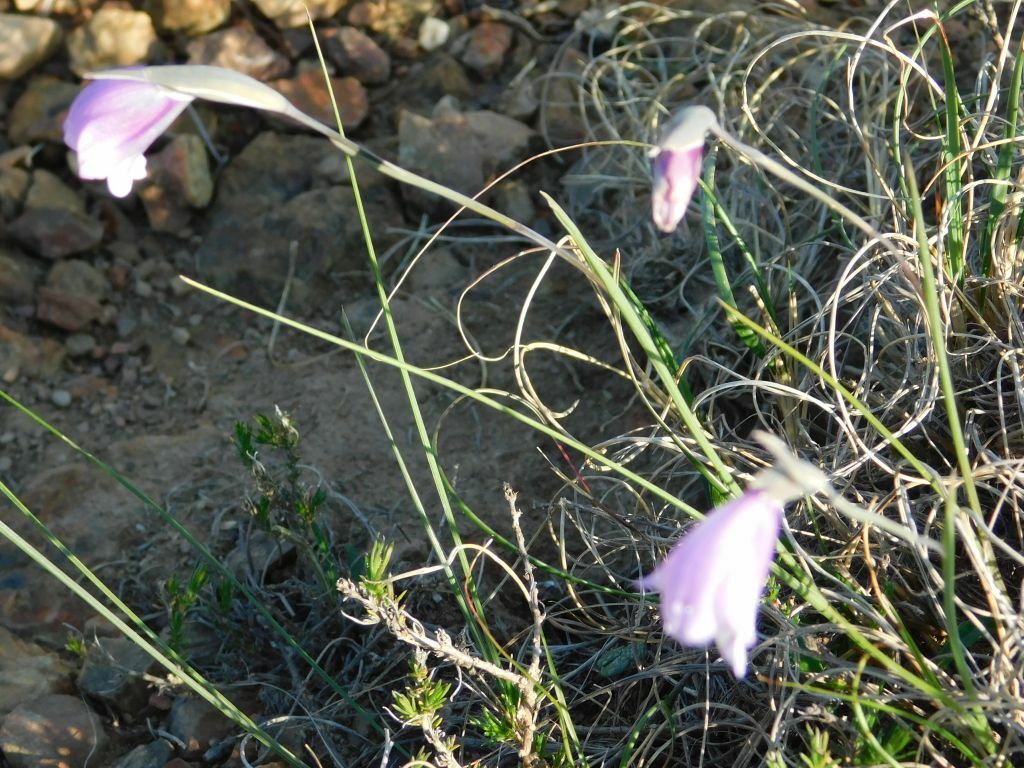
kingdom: Plantae
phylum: Tracheophyta
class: Liliopsida
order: Asparagales
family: Iridaceae
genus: Gladiolus
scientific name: Gladiolus rogersii
